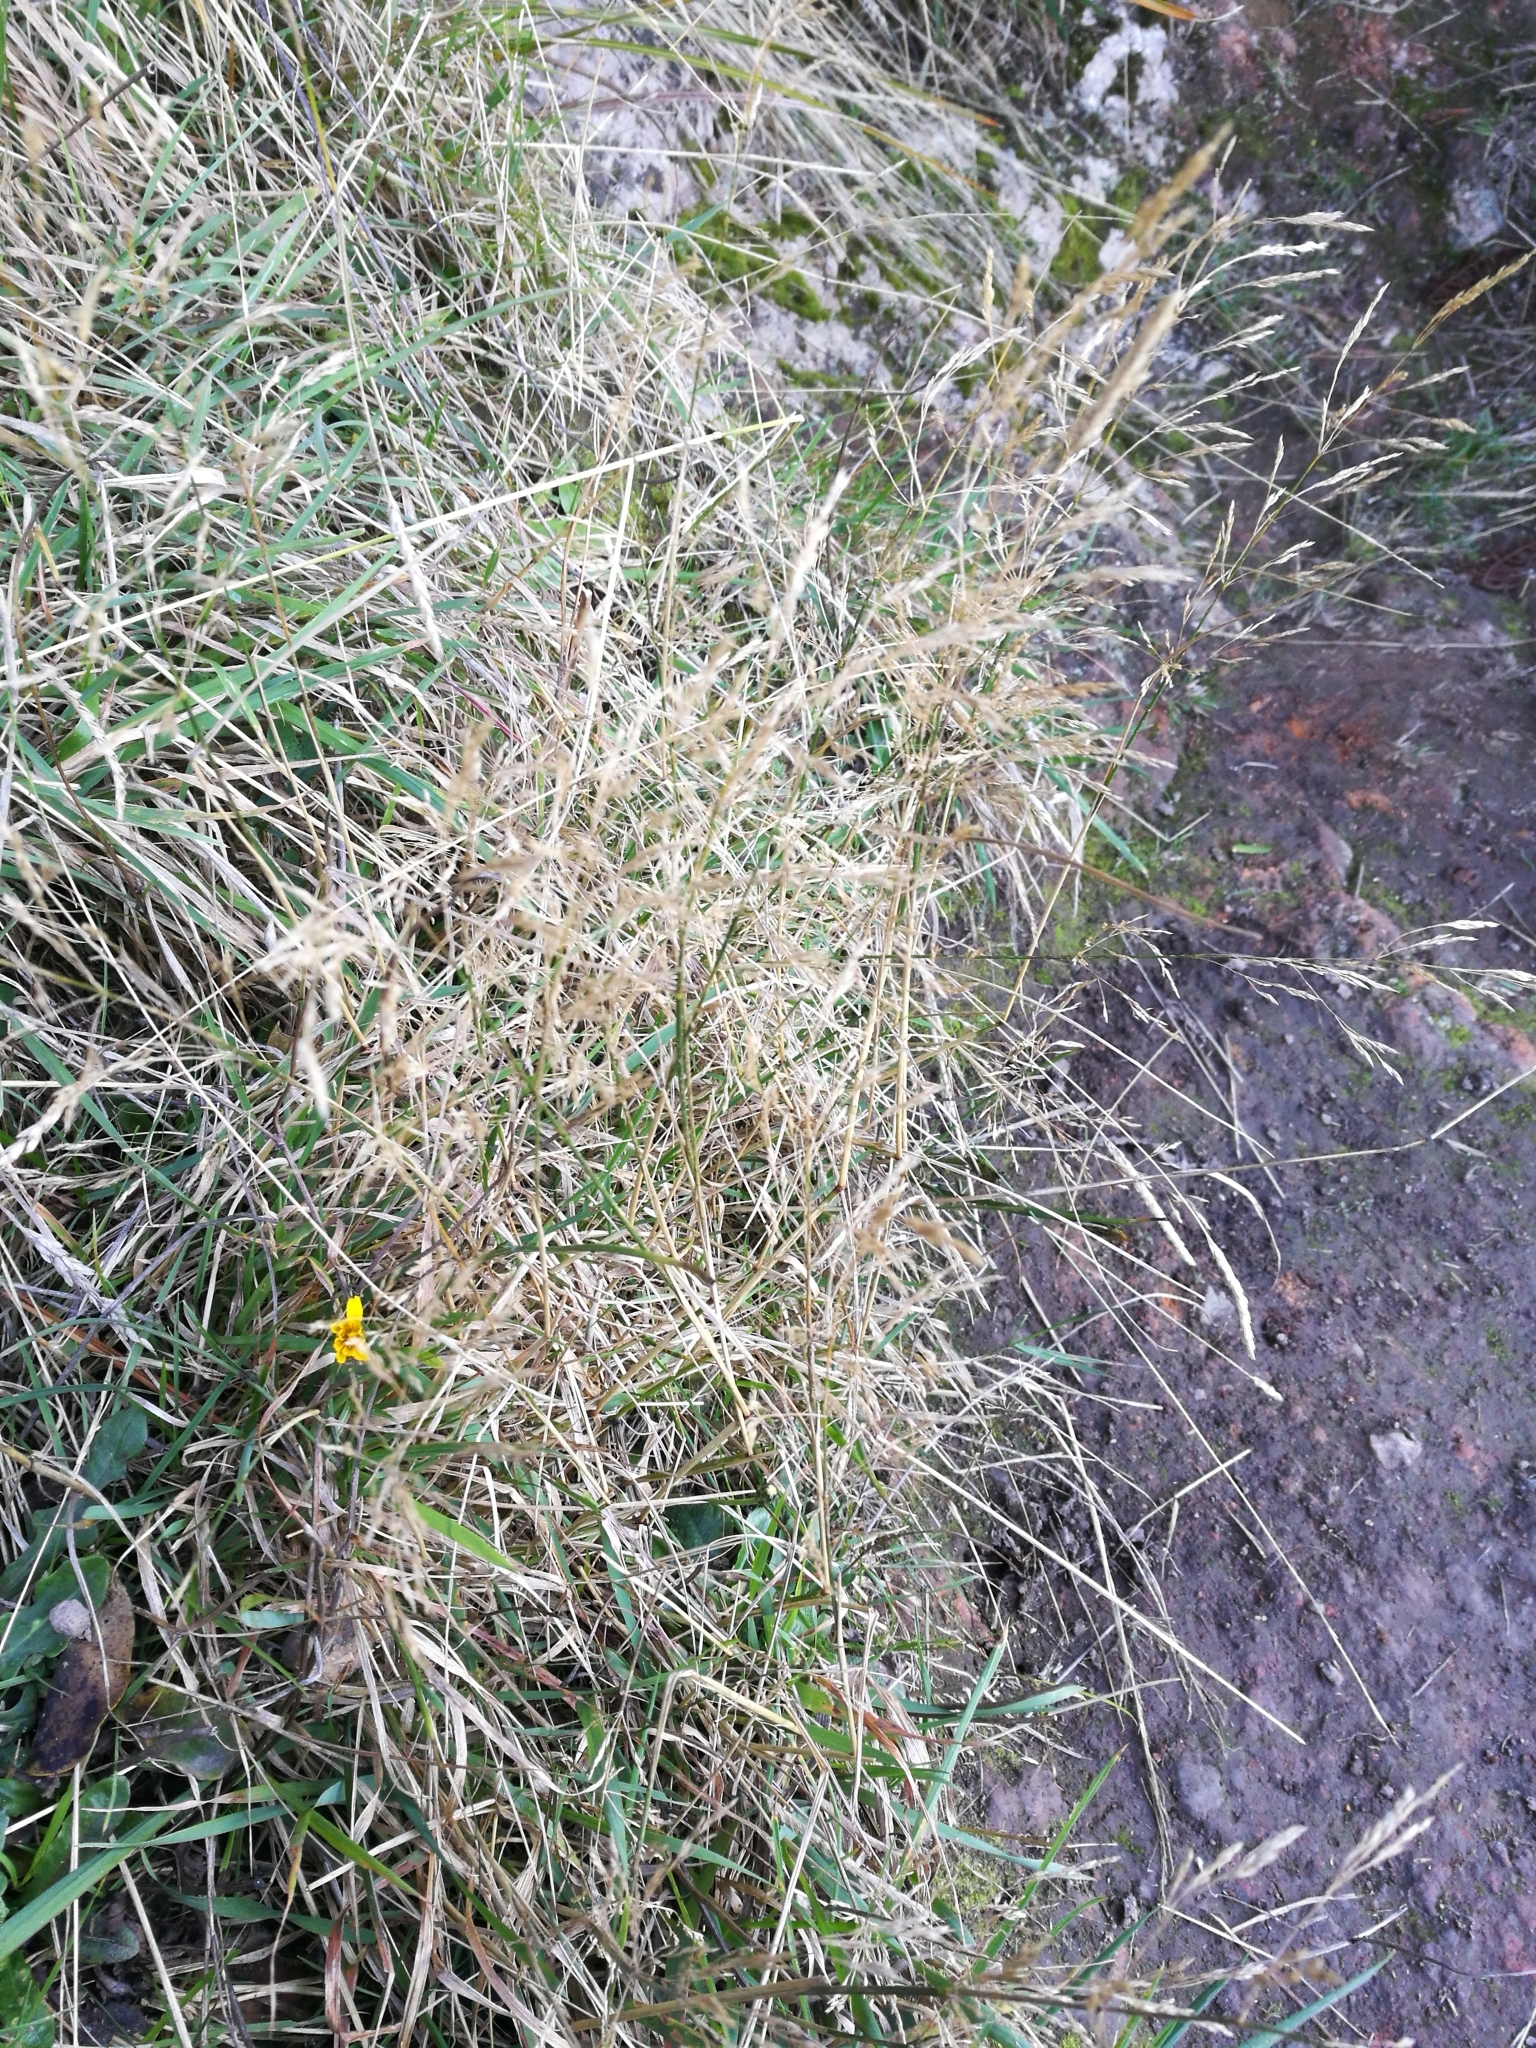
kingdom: Plantae
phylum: Tracheophyta
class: Liliopsida
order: Poales
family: Poaceae
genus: Agrostis
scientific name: Agrostis capillaris
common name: Colonial bentgrass
